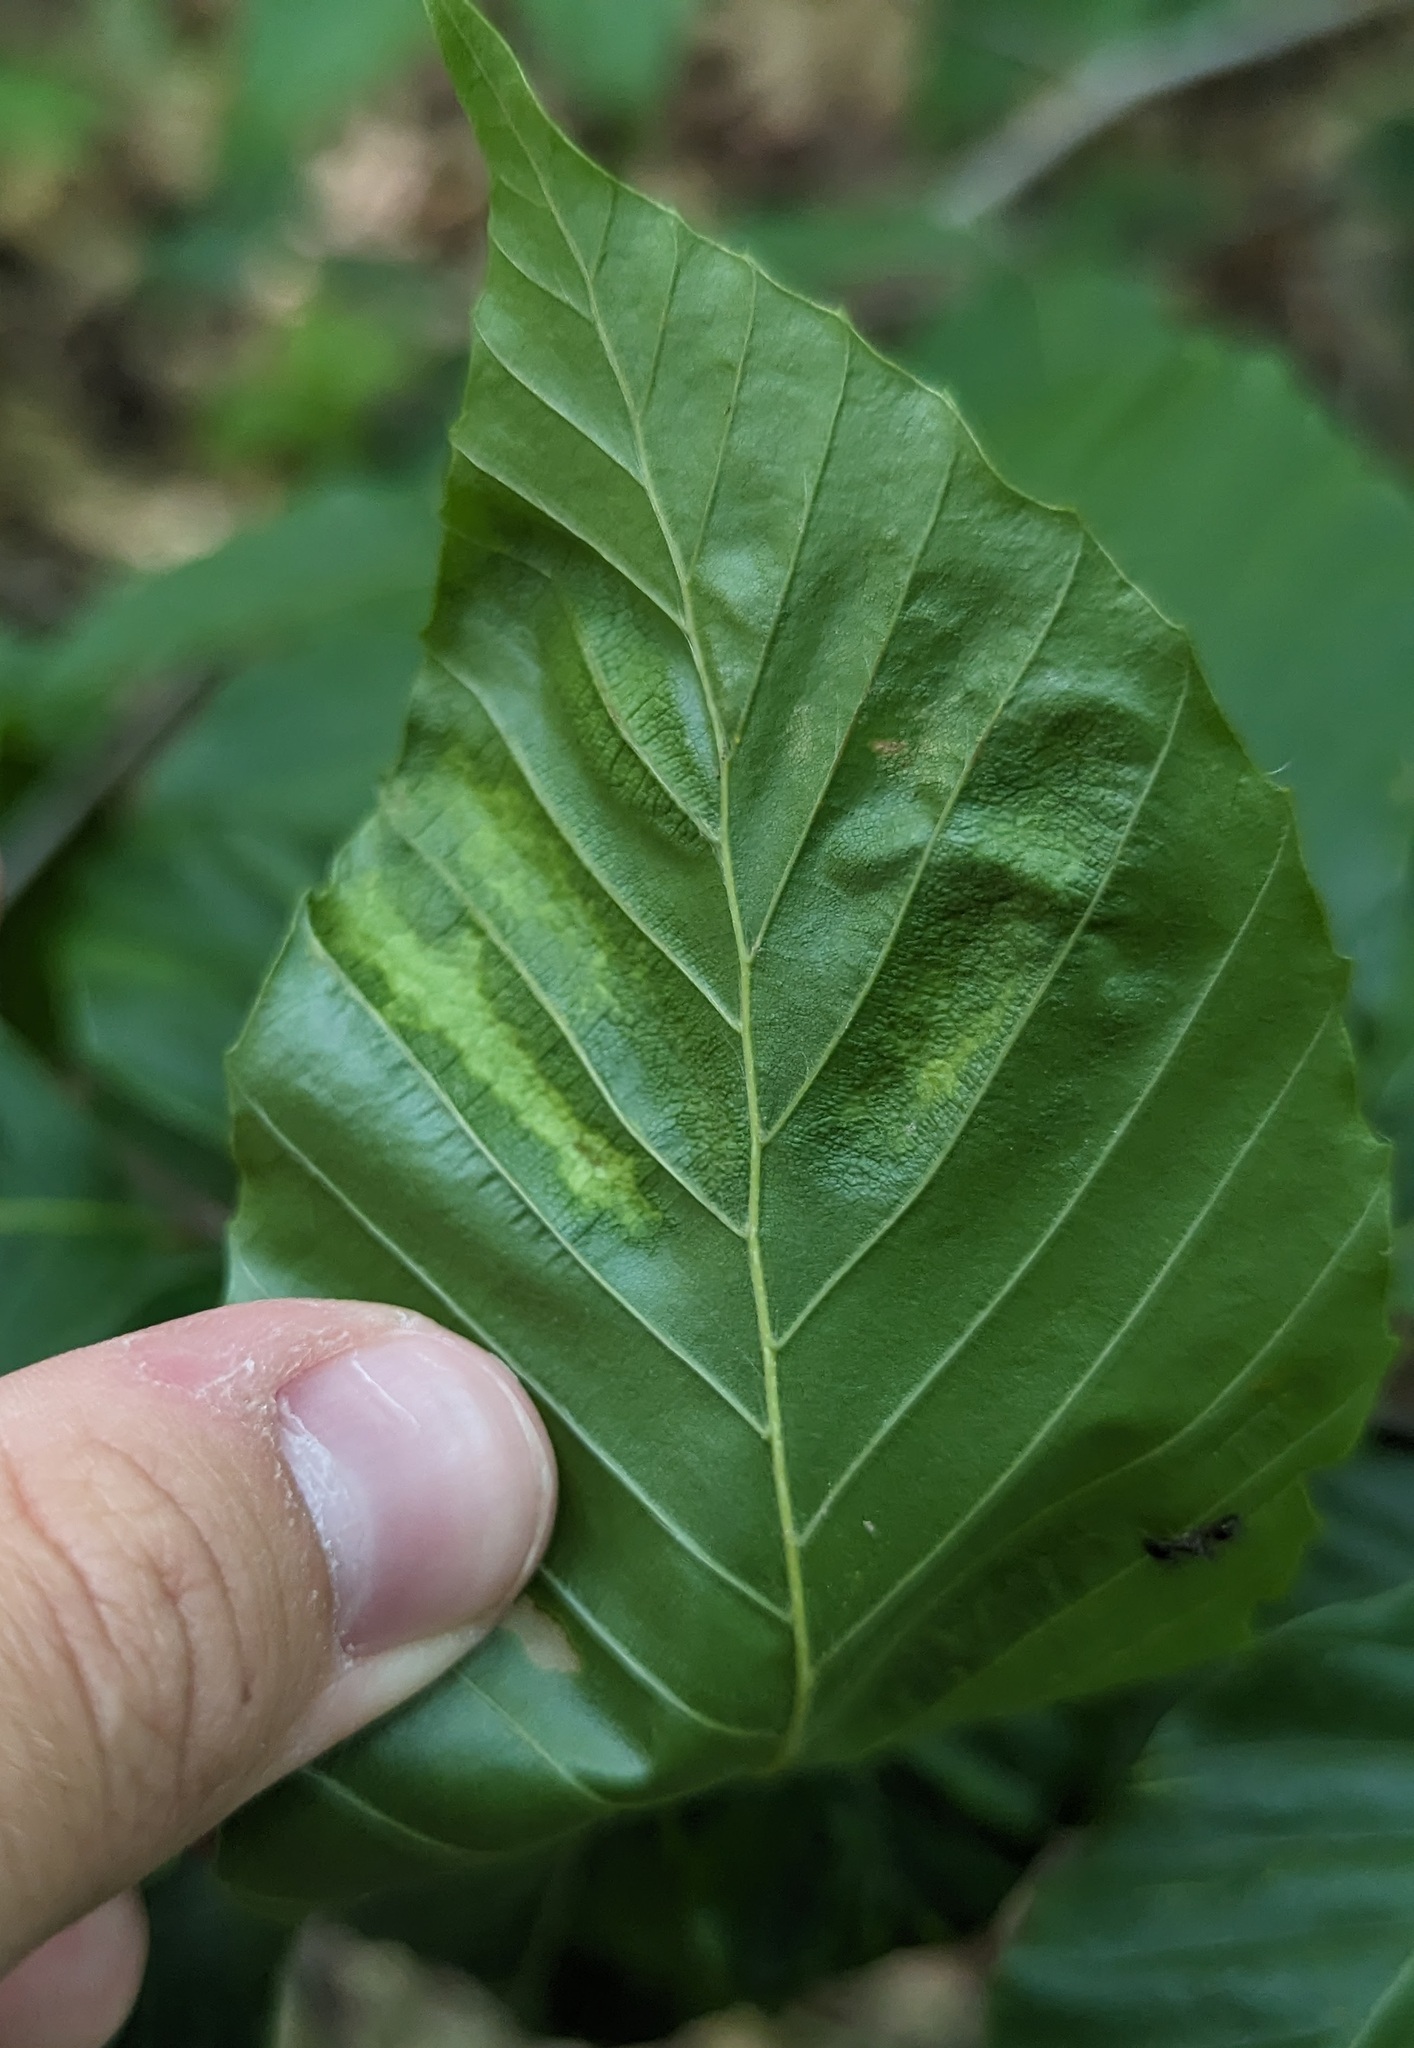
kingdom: Animalia
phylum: Nematoda
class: Chromadorea
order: Rhabditida
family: Anguinidae
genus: Litylenchus
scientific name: Litylenchus crenatae
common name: Beech leaf disease
